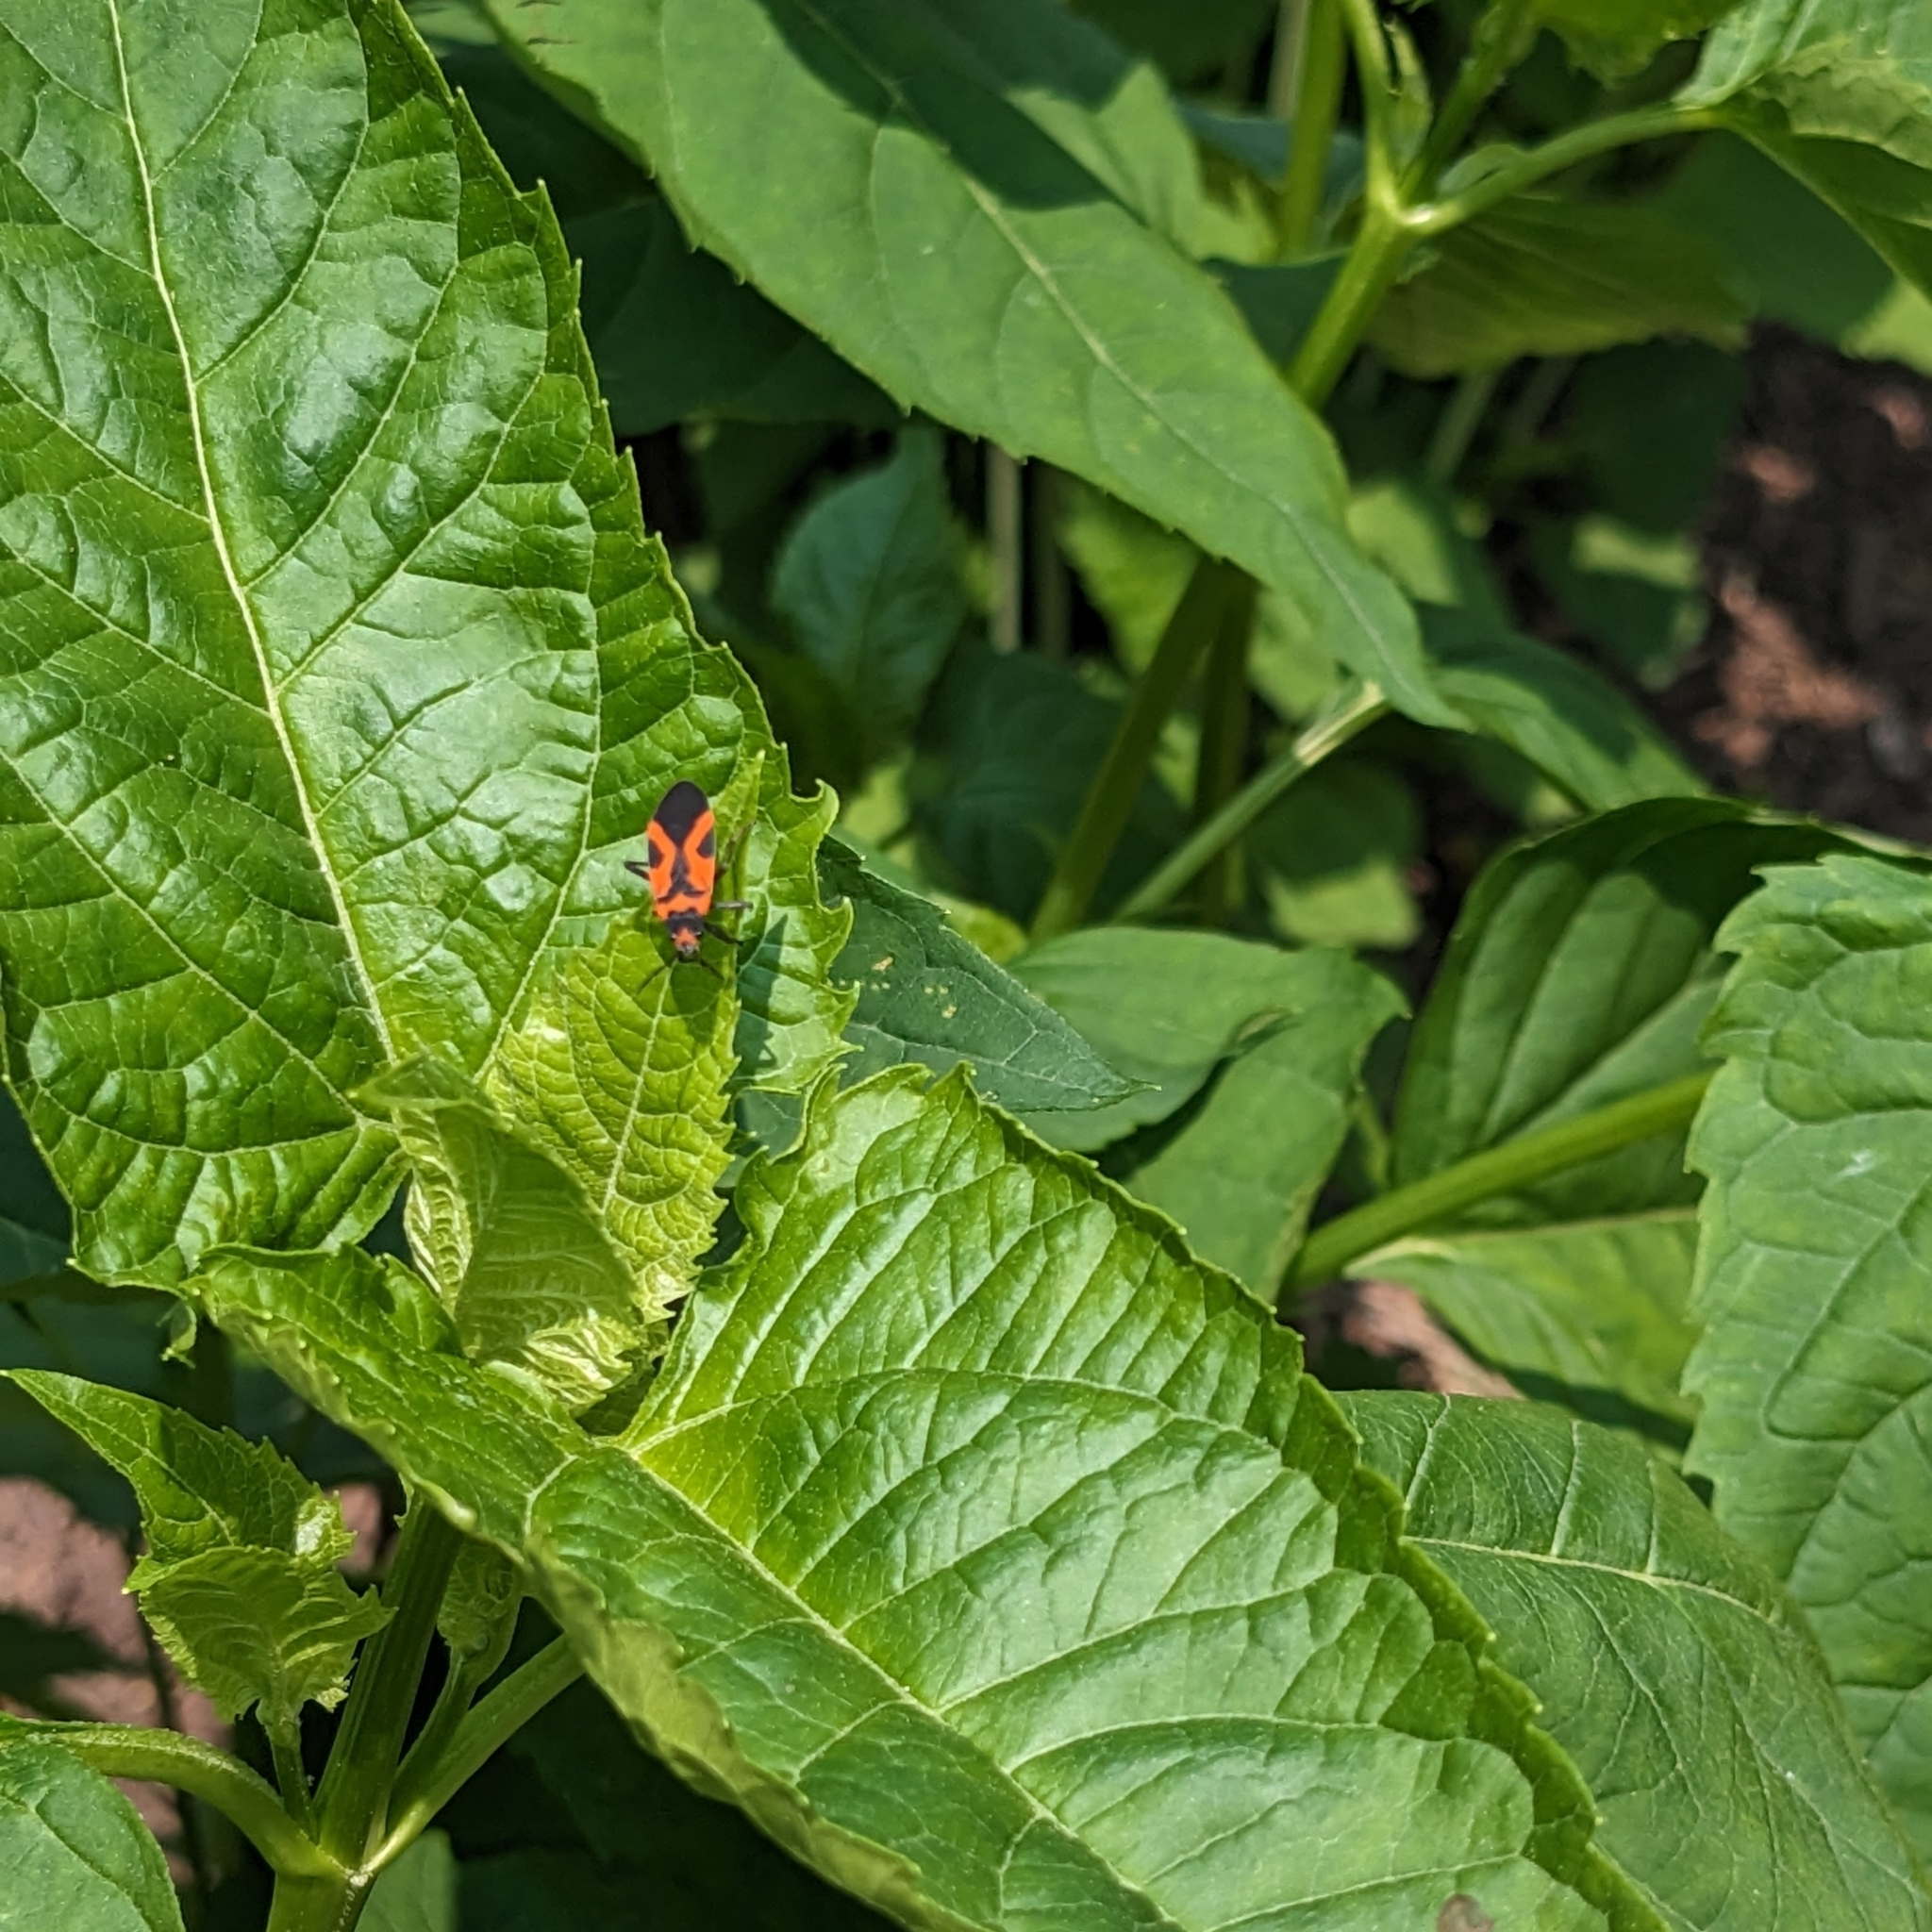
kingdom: Animalia
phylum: Arthropoda
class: Insecta
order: Hemiptera
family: Lygaeidae
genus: Lygaeus
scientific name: Lygaeus turcicus
